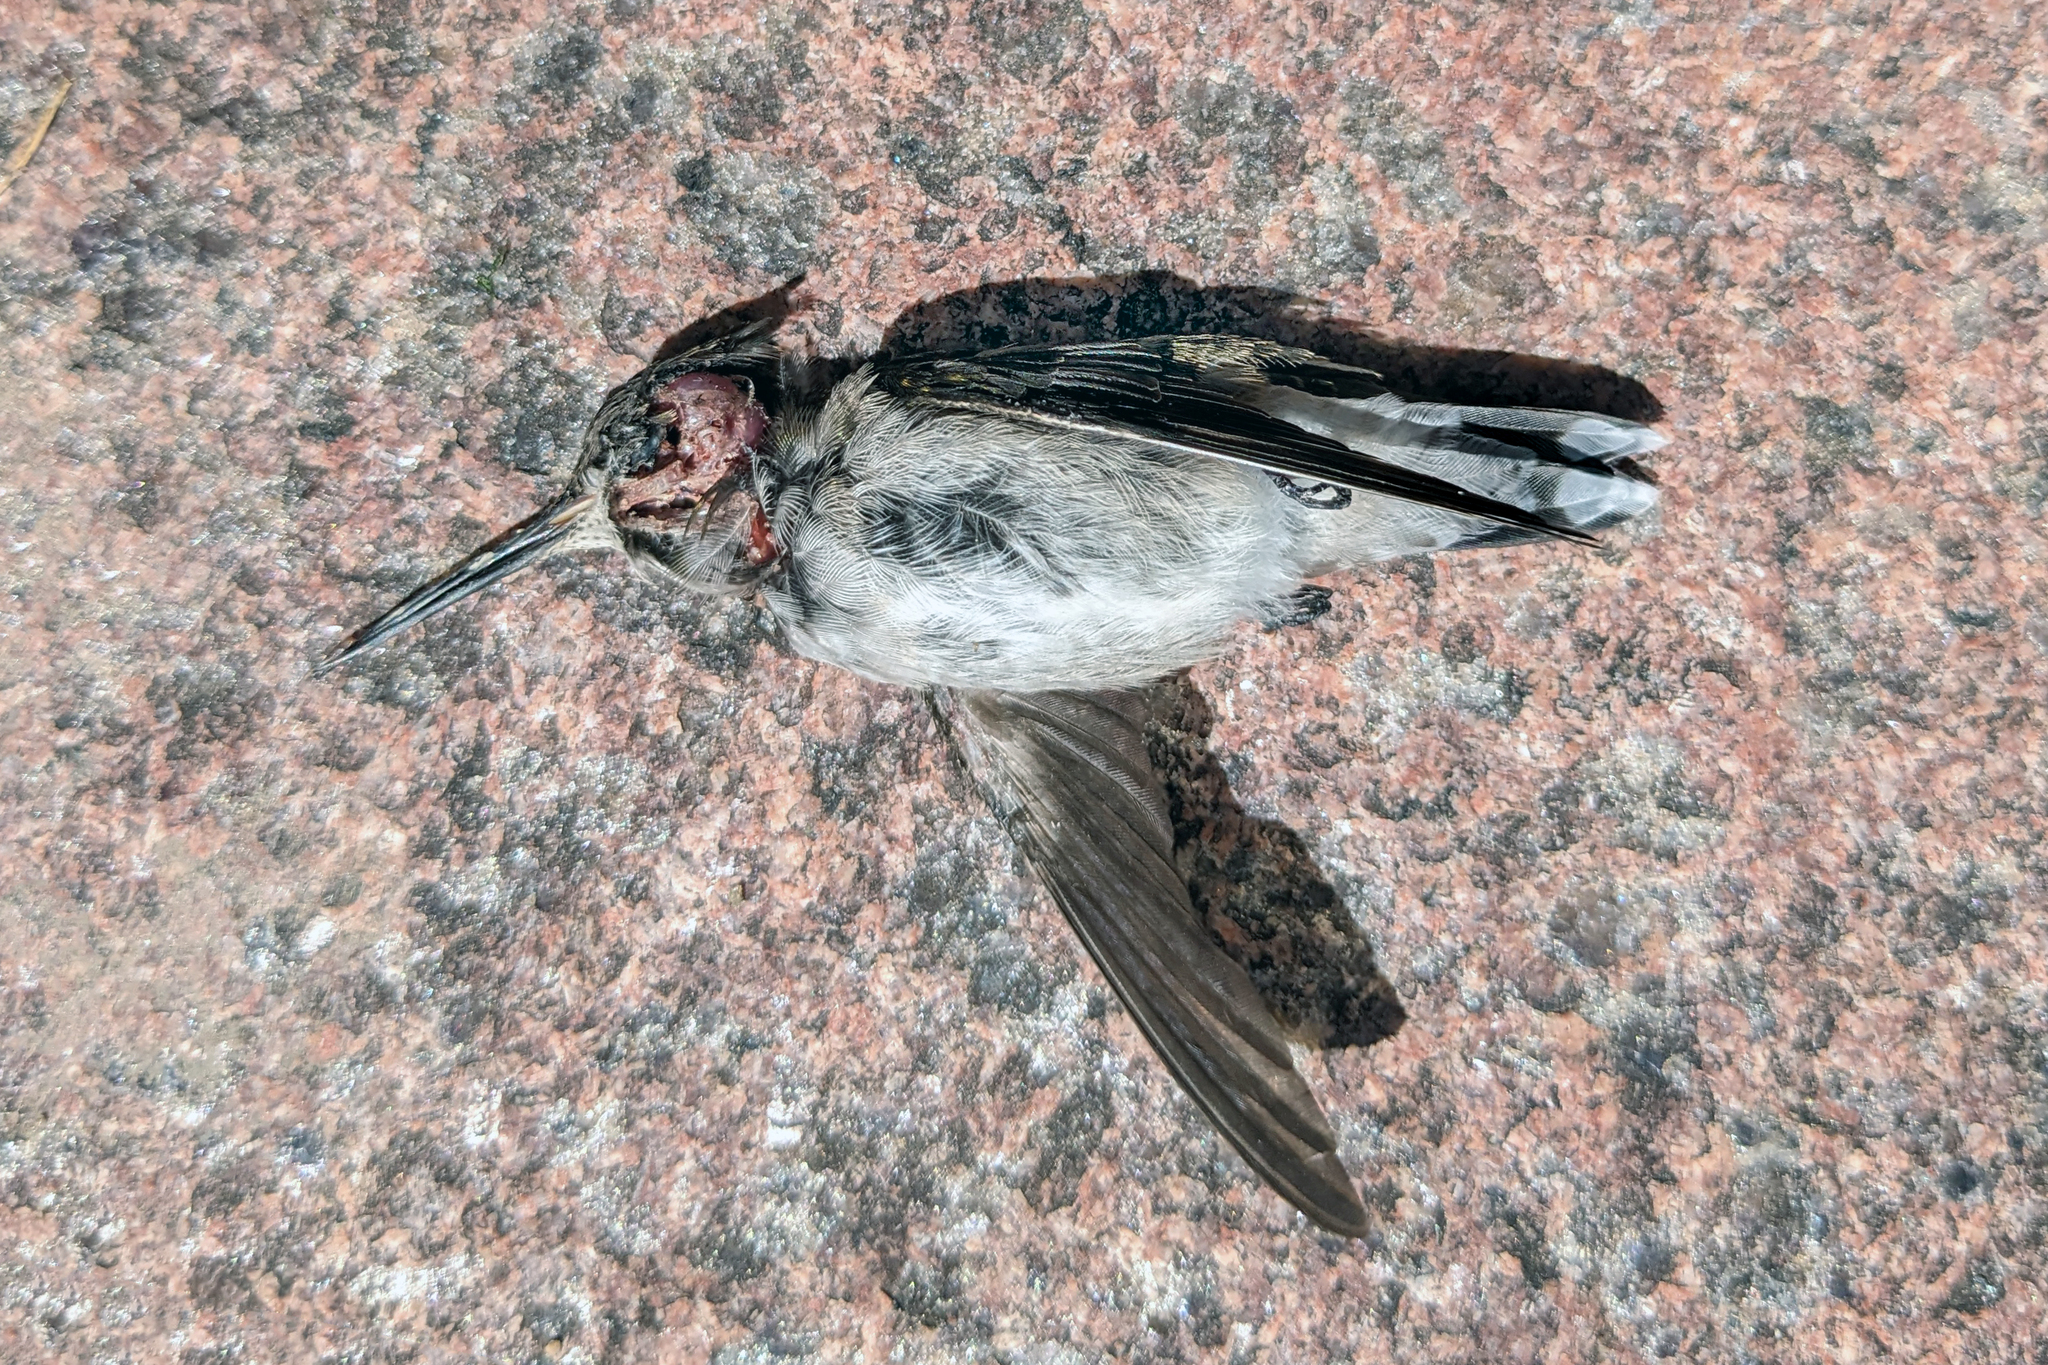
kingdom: Animalia
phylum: Chordata
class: Aves
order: Apodiformes
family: Trochilidae
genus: Archilochus
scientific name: Archilochus colubris
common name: Ruby-throated hummingbird
